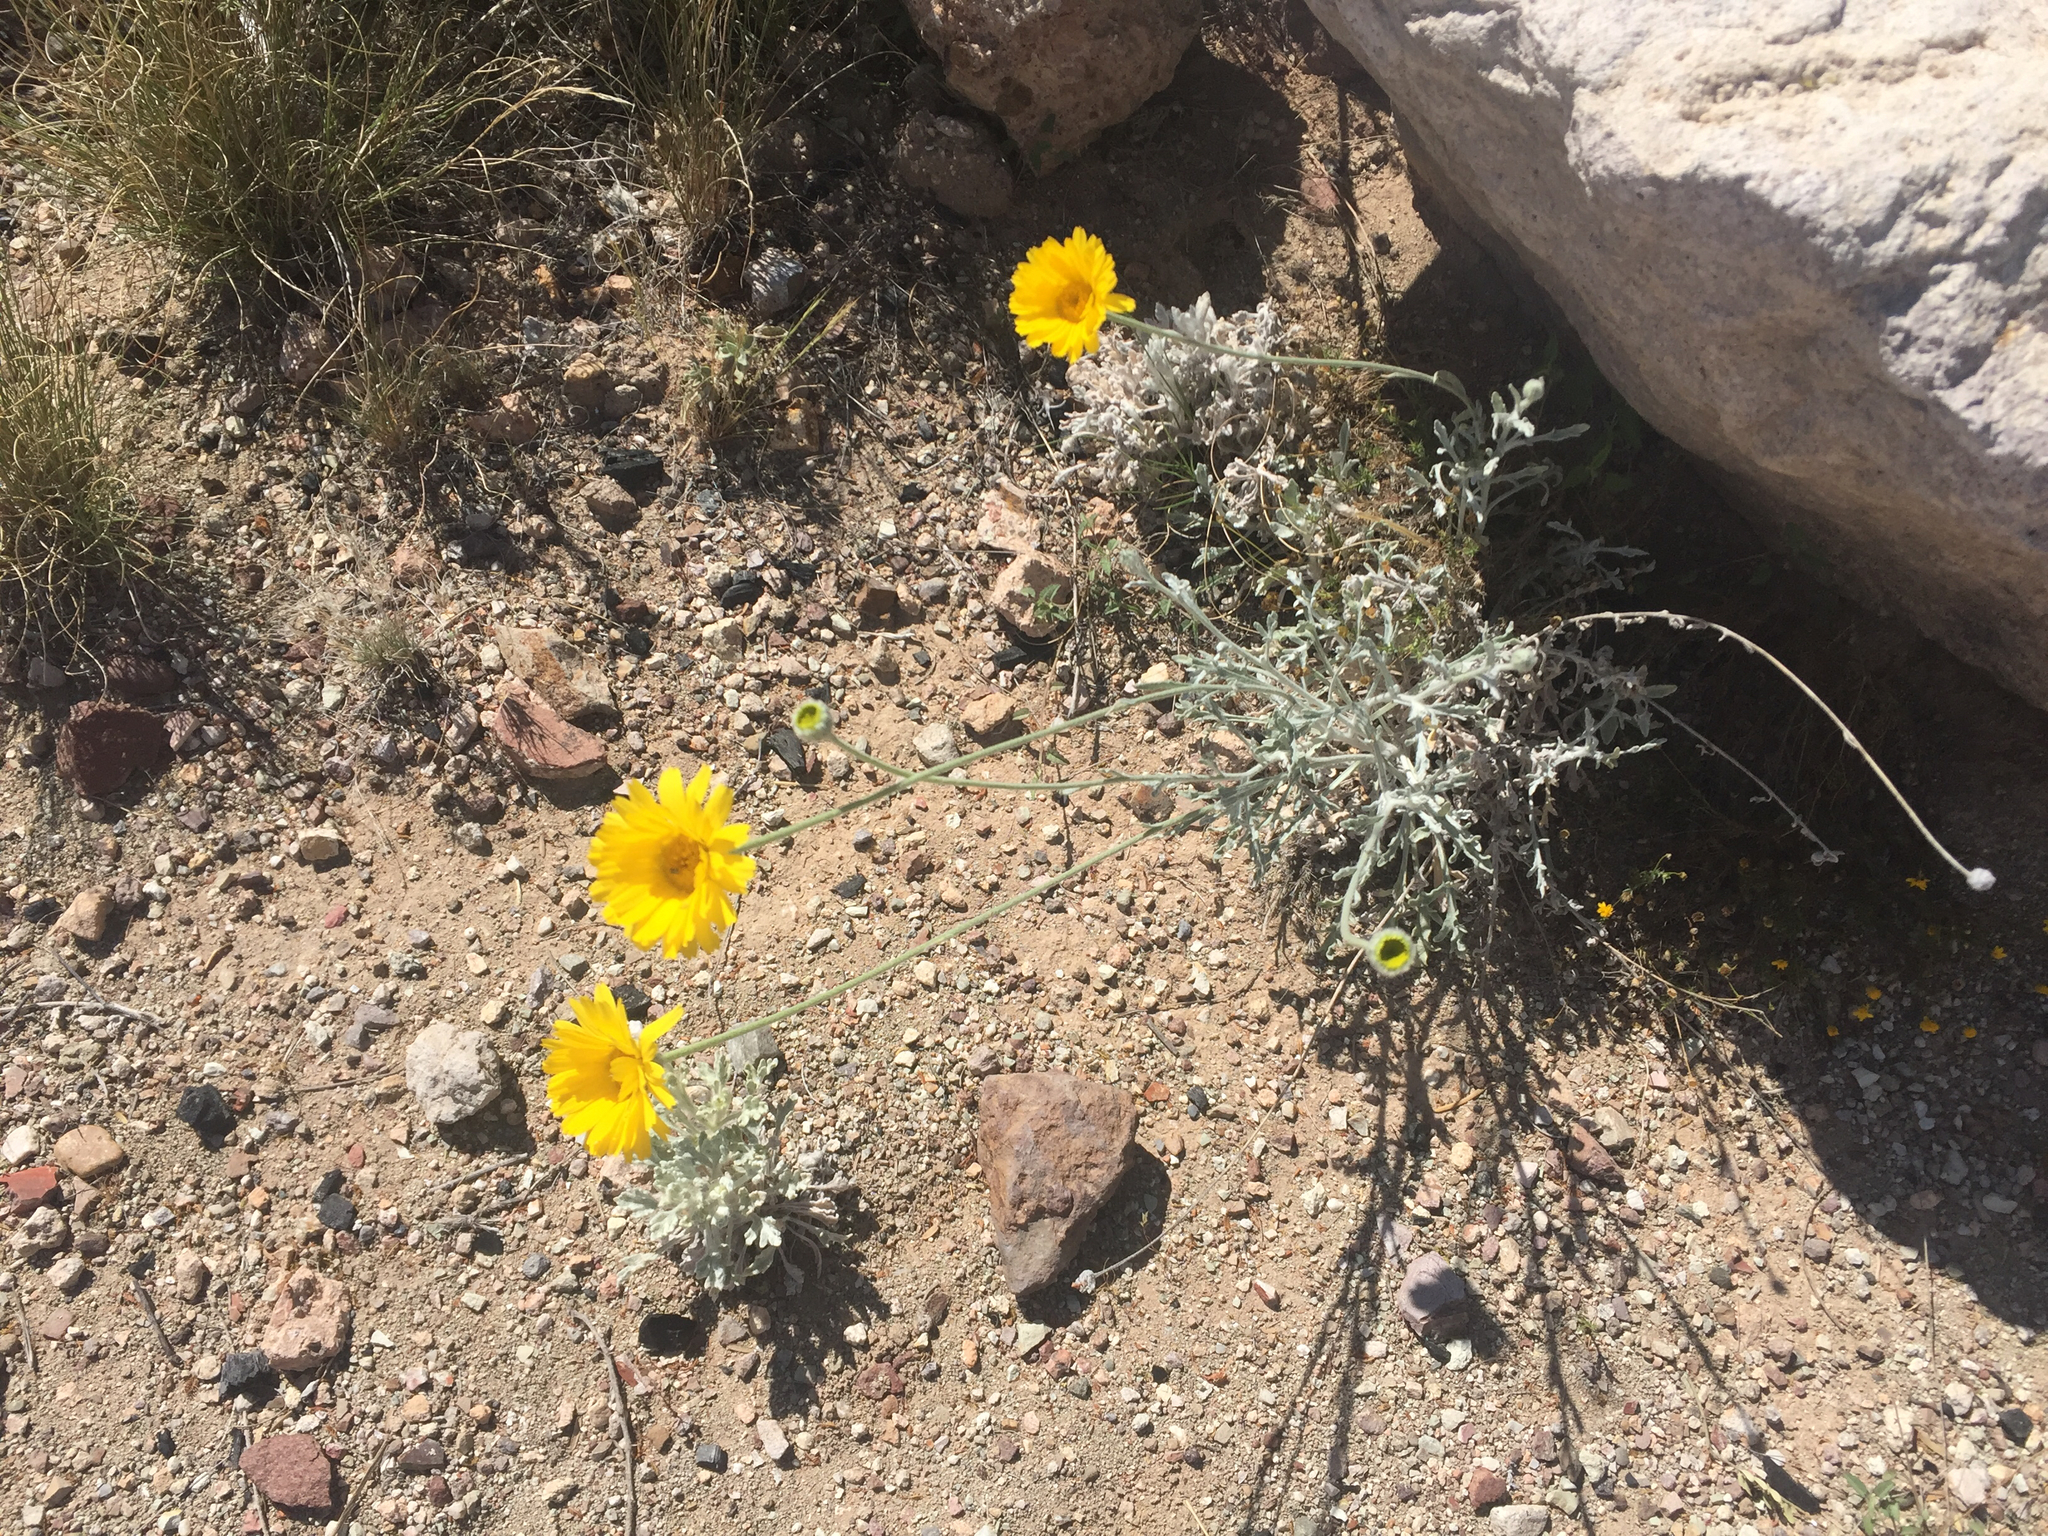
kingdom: Plantae
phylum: Tracheophyta
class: Magnoliopsida
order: Asterales
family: Asteraceae
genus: Baileya
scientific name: Baileya multiradiata
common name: Desert-marigold
